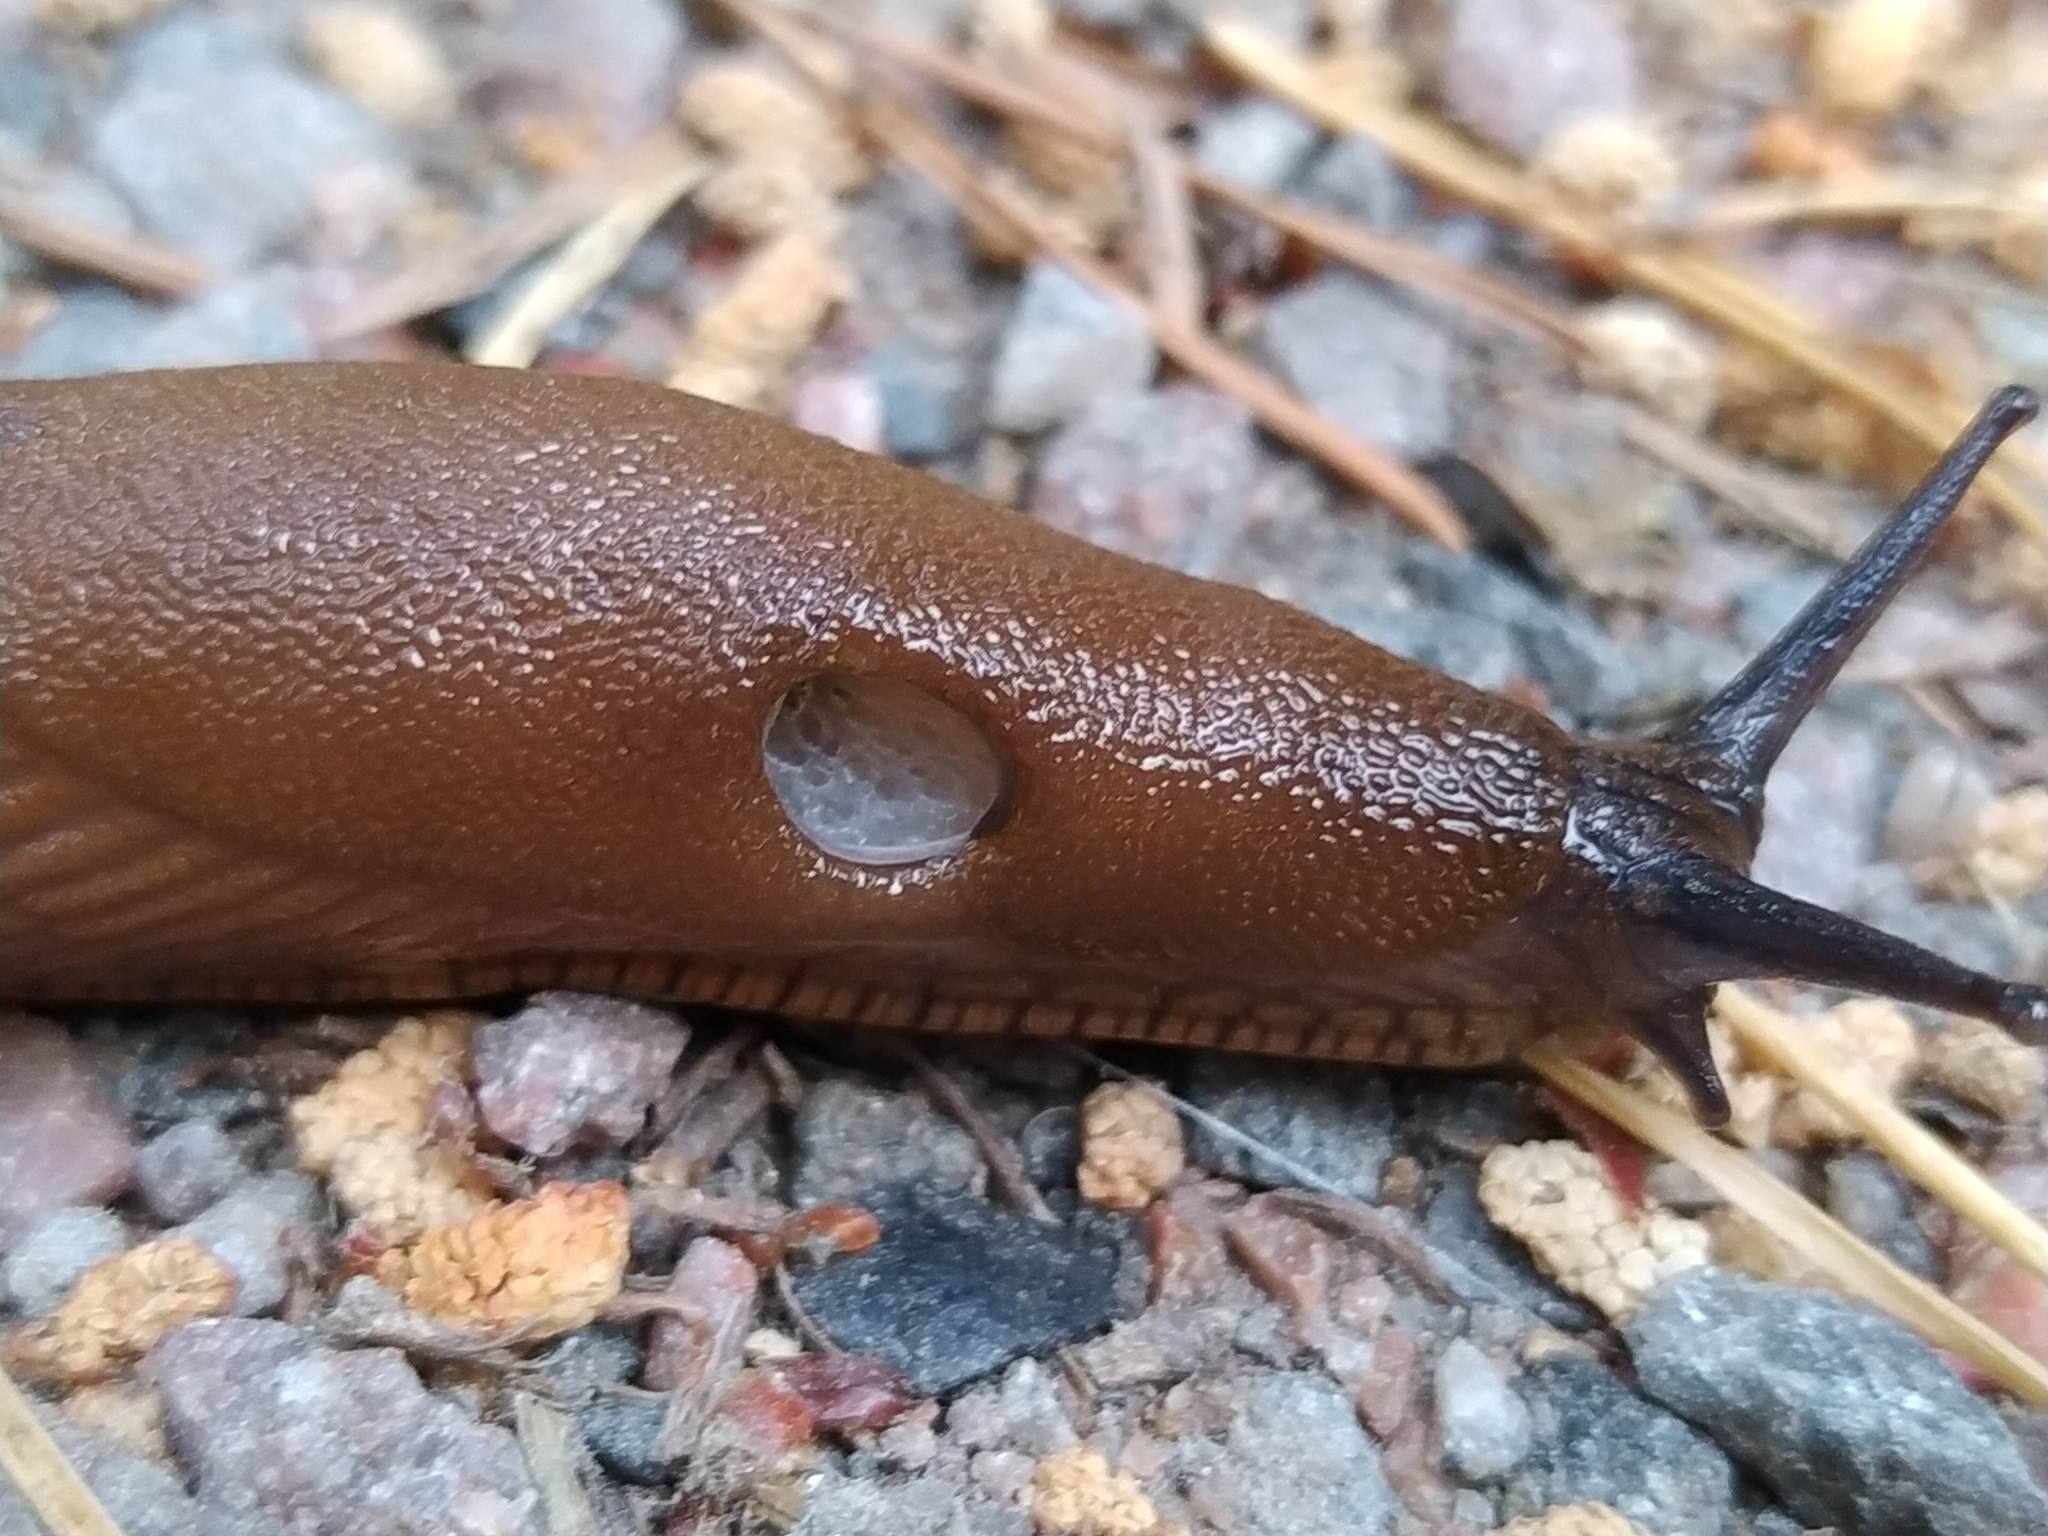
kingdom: Animalia
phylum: Mollusca
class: Gastropoda
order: Stylommatophora
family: Arionidae
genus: Arion
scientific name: Arion vulgaris
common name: Lusitanian slug
